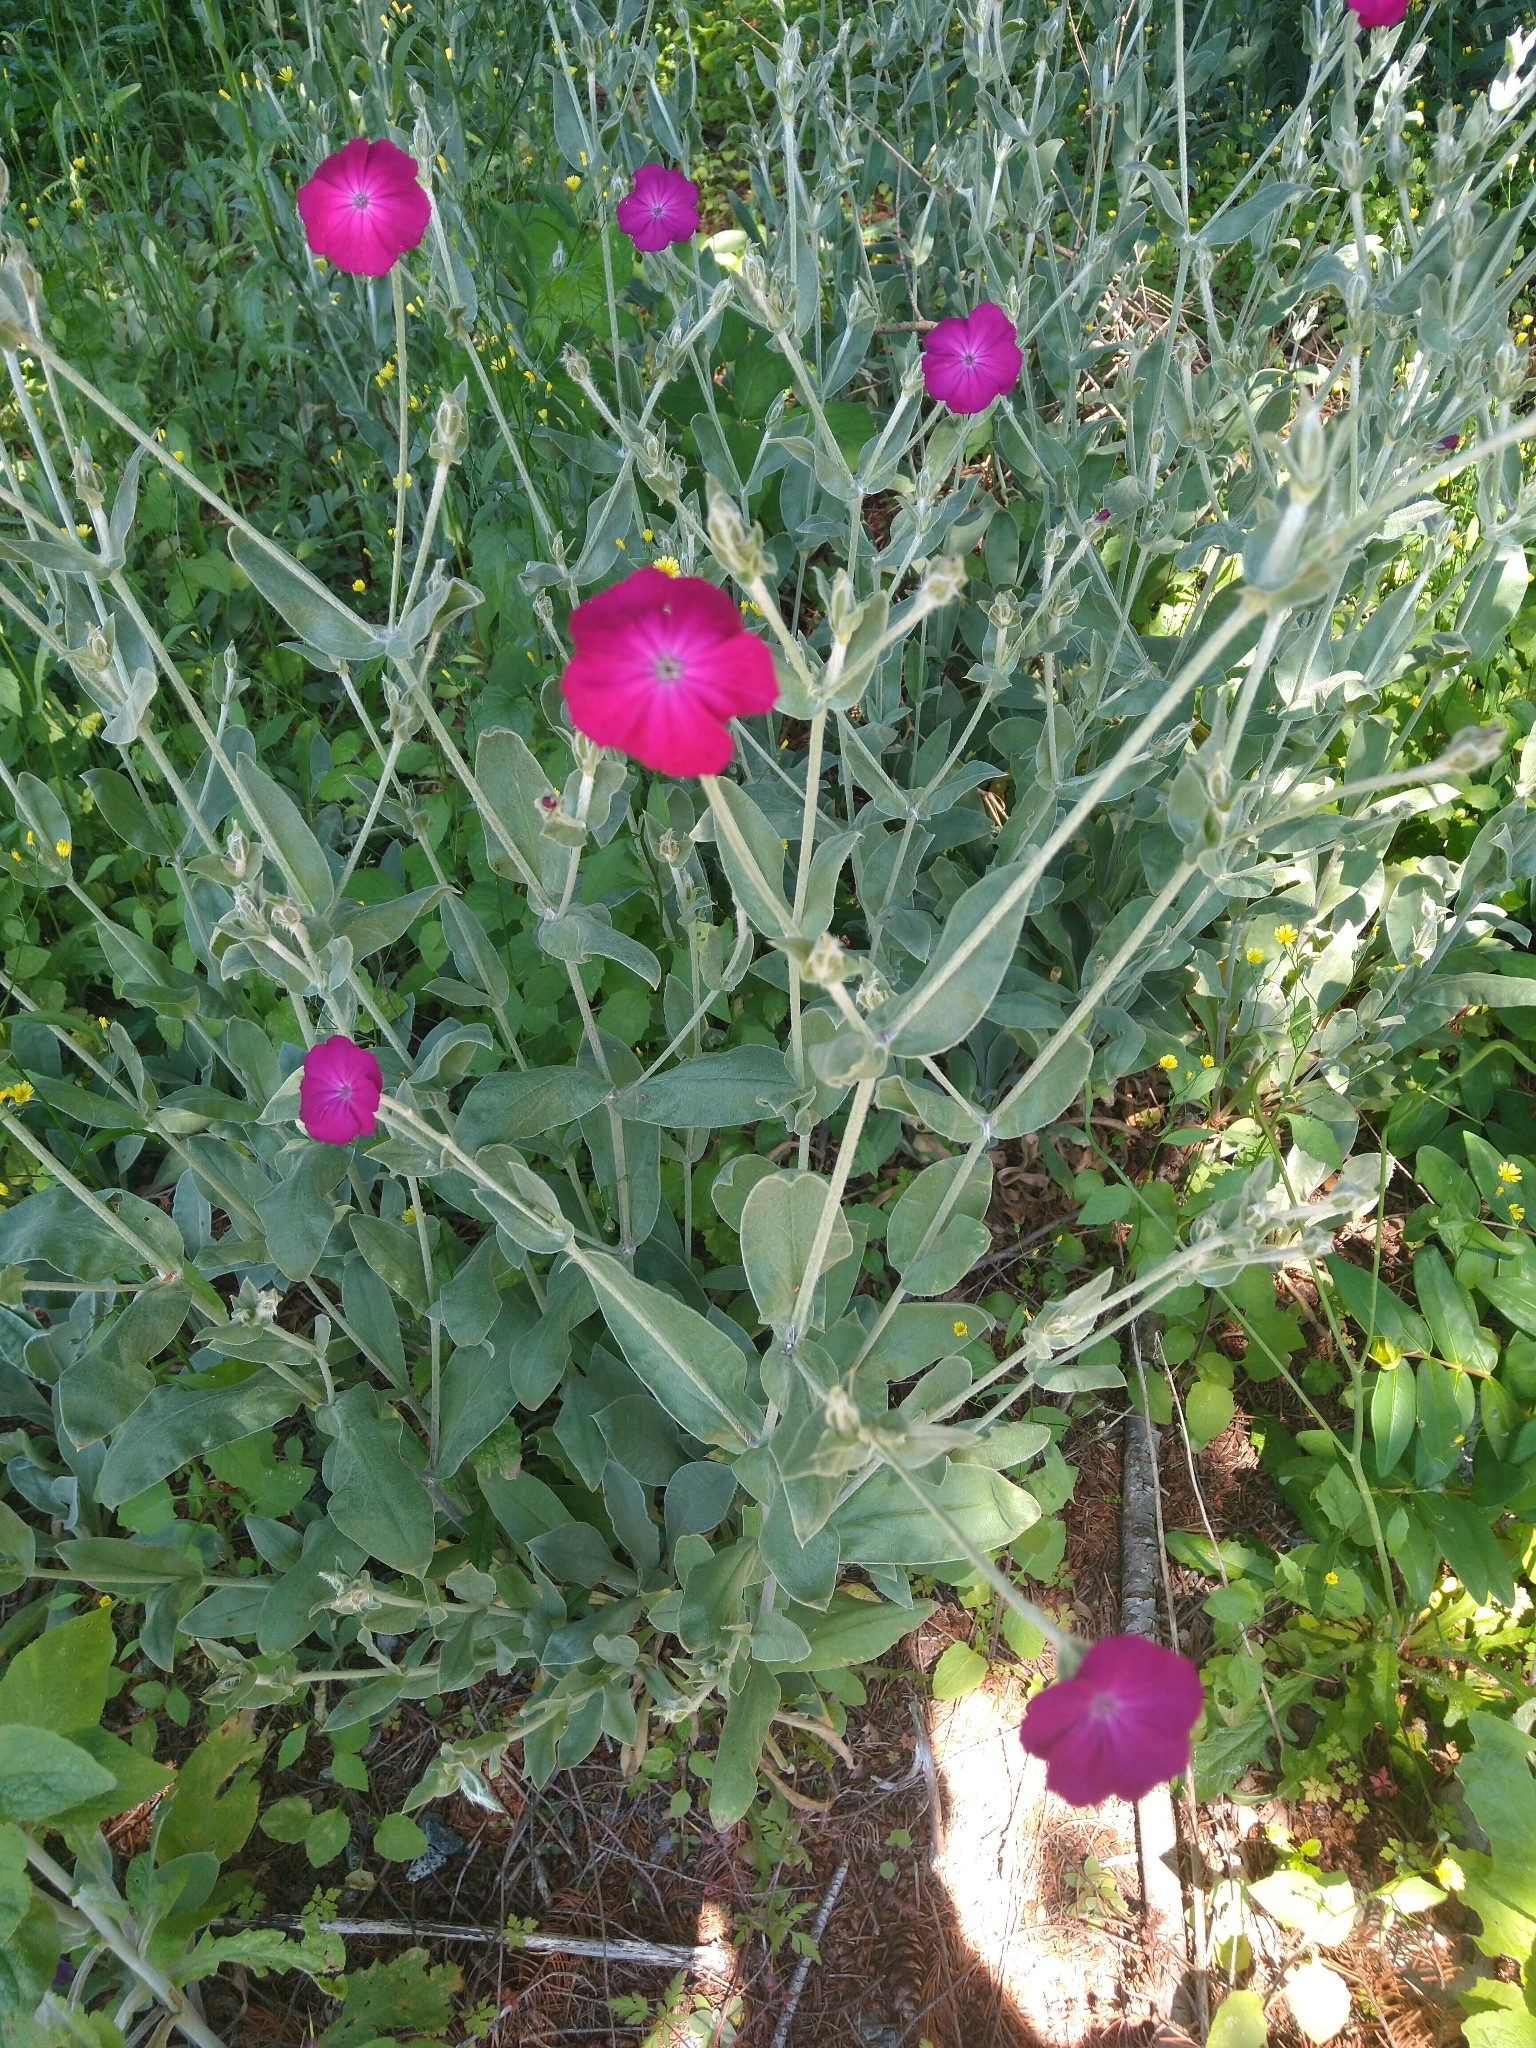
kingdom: Plantae
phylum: Tracheophyta
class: Magnoliopsida
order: Caryophyllales
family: Caryophyllaceae
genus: Silene
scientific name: Silene coronaria
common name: Rose campion
